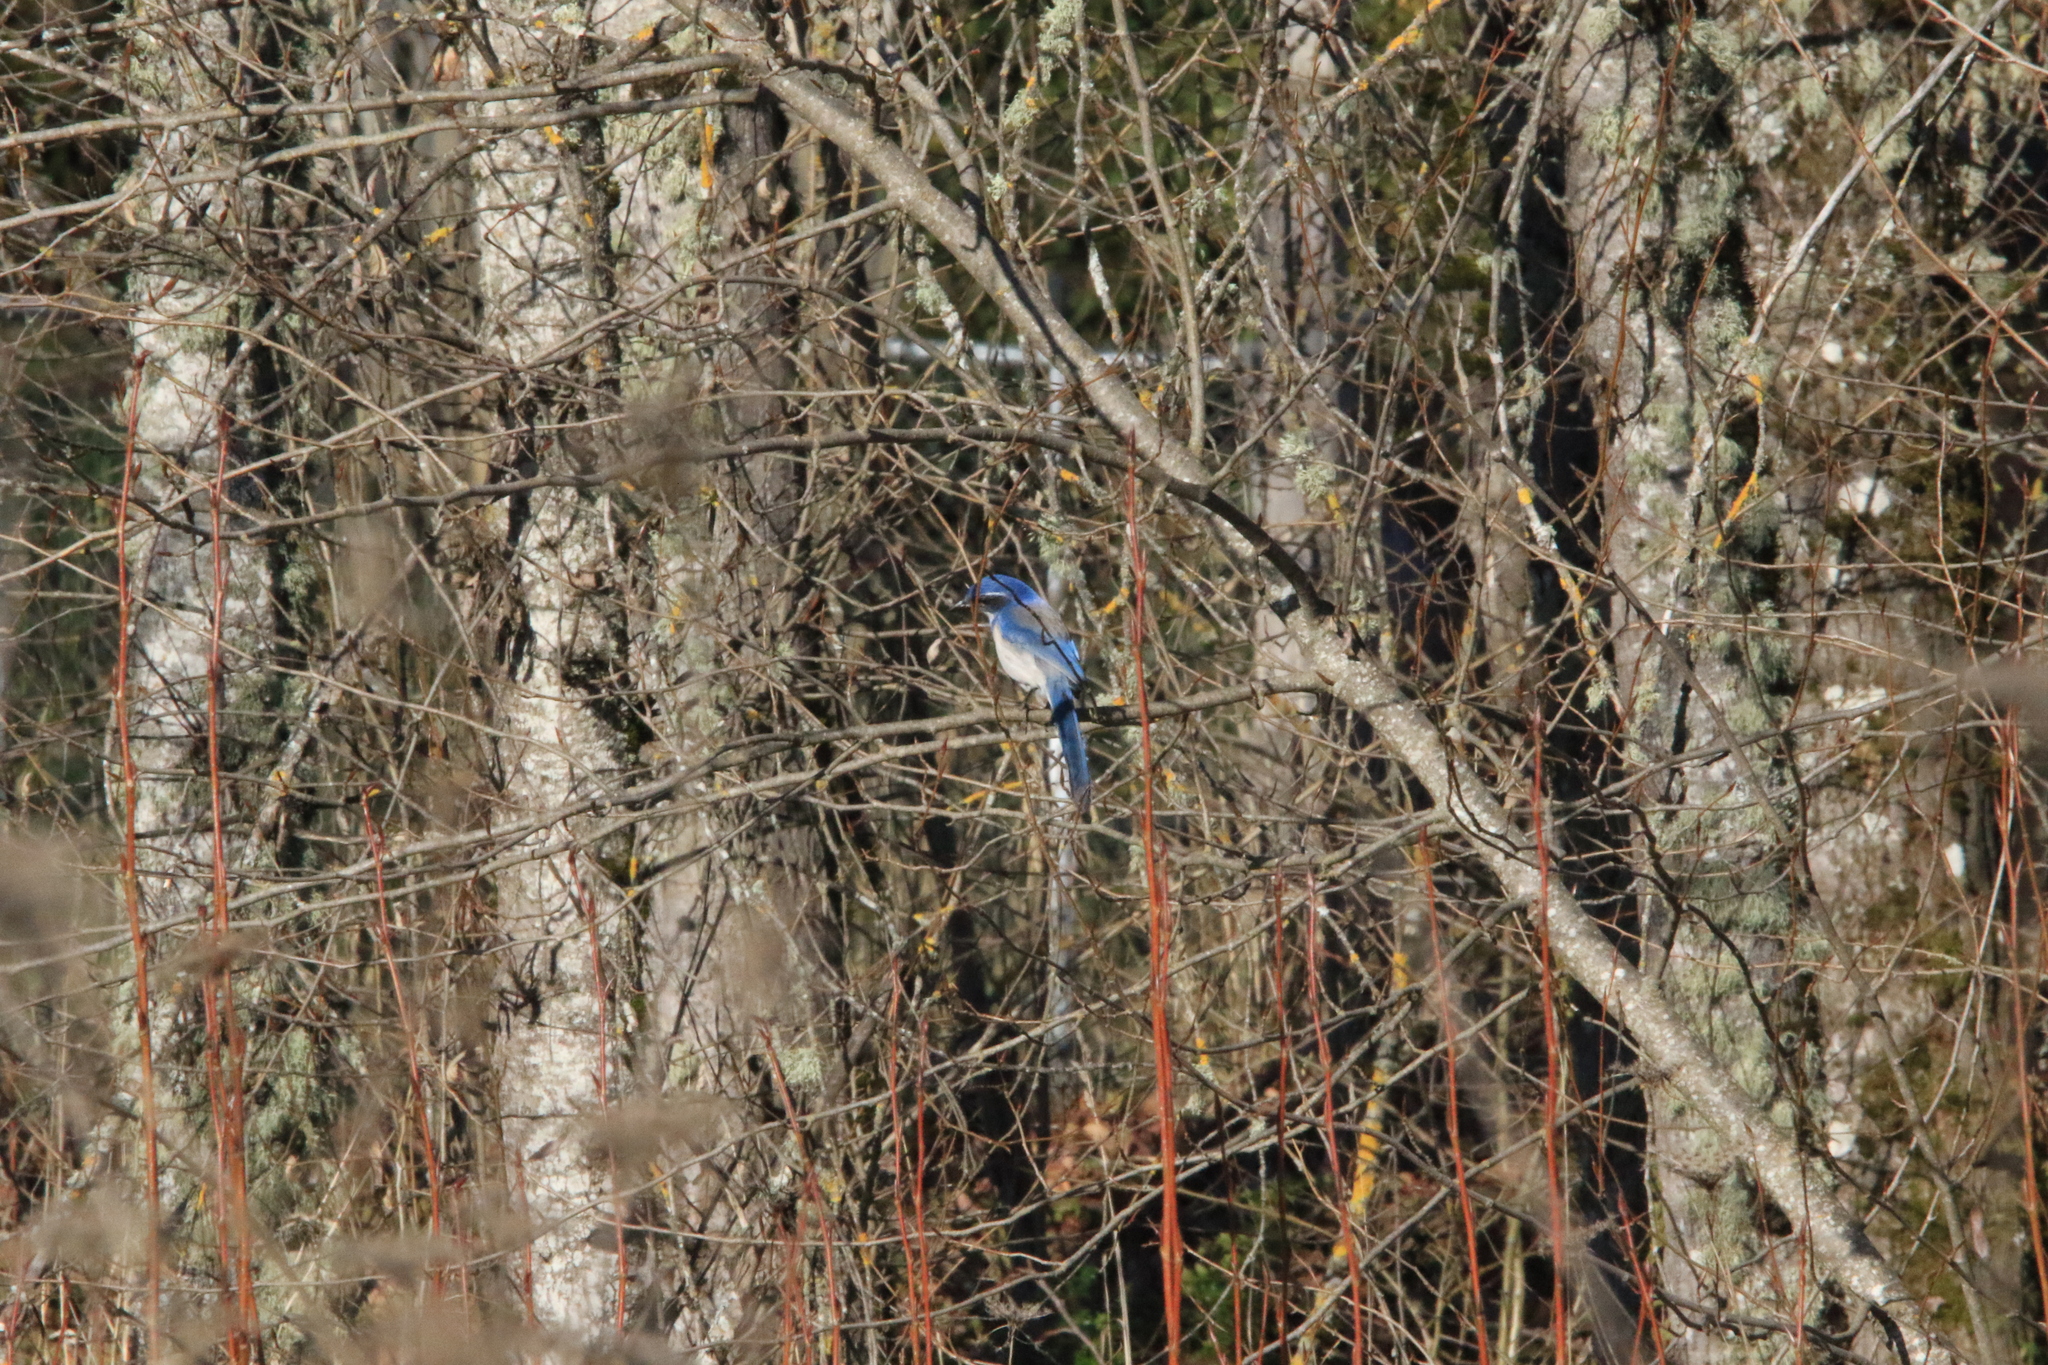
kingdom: Animalia
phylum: Chordata
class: Aves
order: Passeriformes
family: Corvidae
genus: Aphelocoma
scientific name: Aphelocoma californica
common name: California scrub-jay
